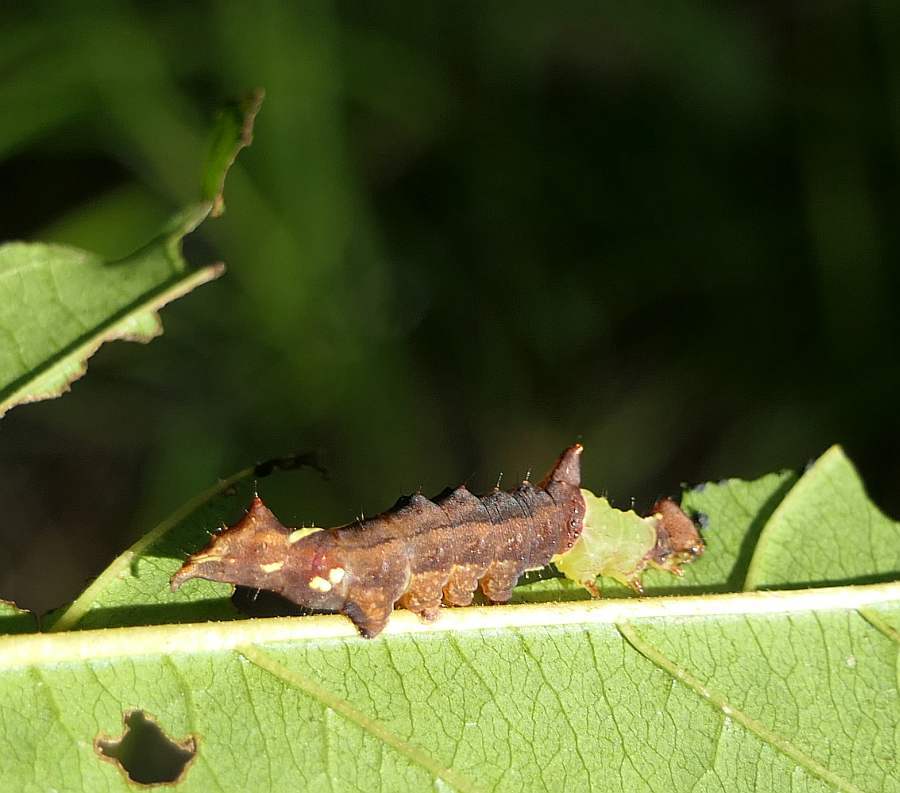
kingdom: Animalia
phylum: Arthropoda
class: Insecta
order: Lepidoptera
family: Notodontidae
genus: Schizura
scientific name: Schizura
